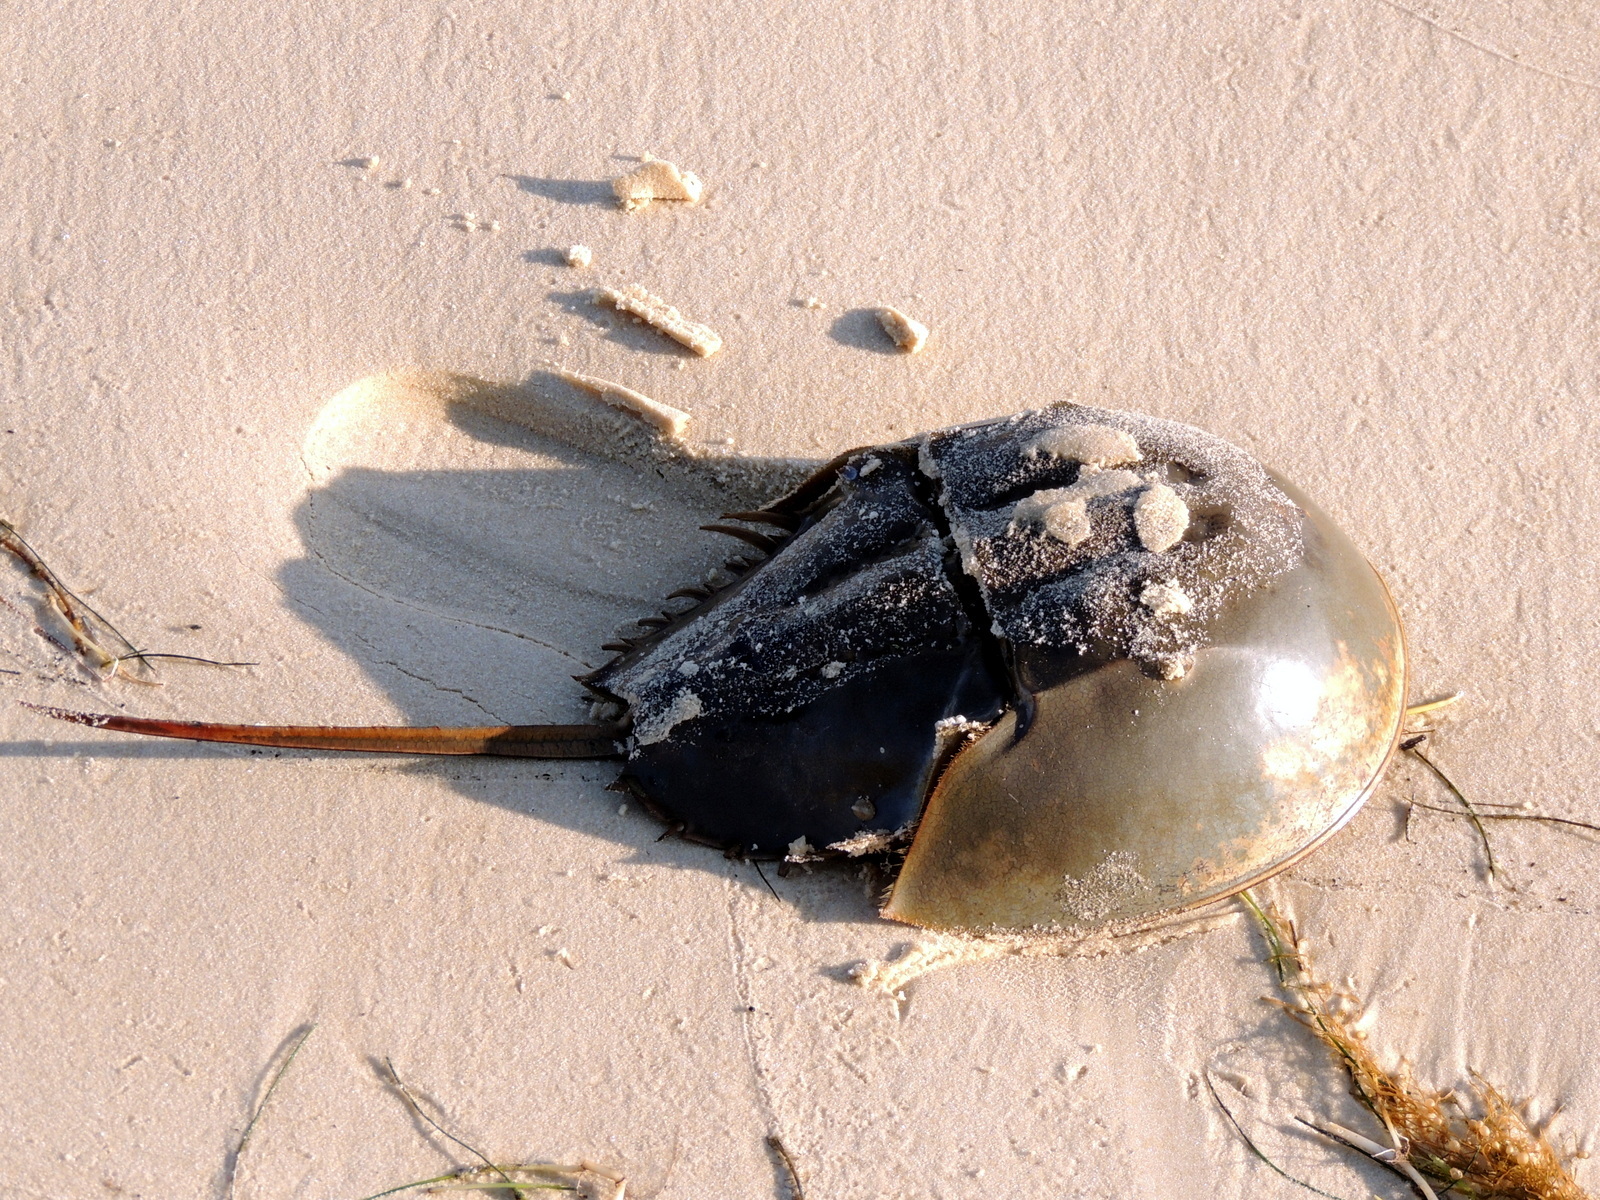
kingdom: Animalia
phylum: Arthropoda
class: Merostomata
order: Xiphosurida
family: Limulidae
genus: Limulus
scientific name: Limulus polyphemus
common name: Horseshoe crab
